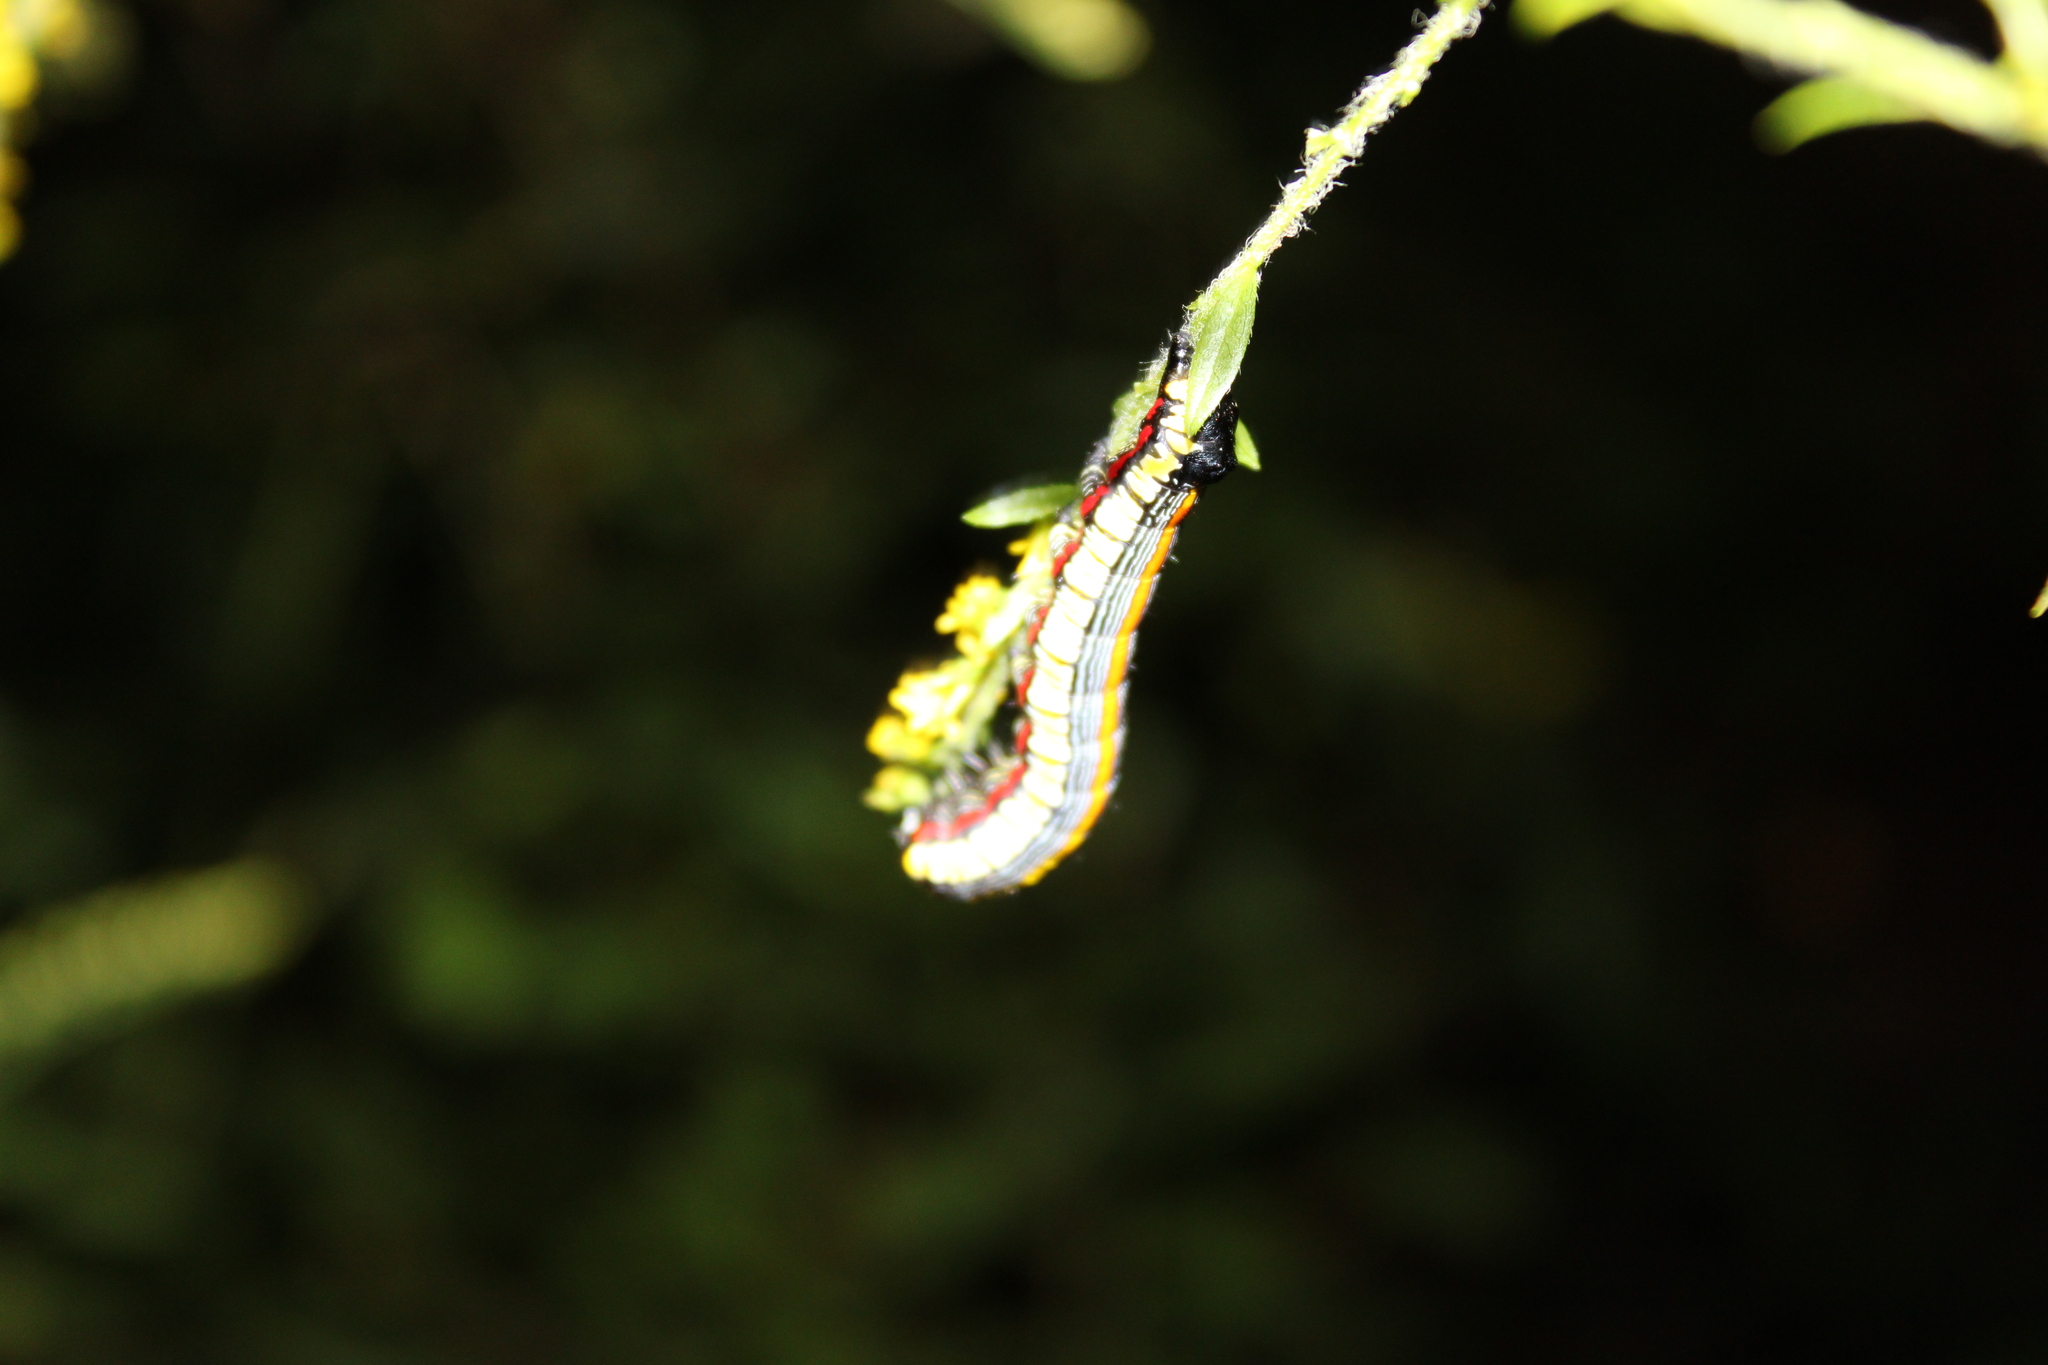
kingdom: Animalia
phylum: Arthropoda
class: Insecta
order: Lepidoptera
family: Noctuidae
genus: Cucullia
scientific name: Cucullia convexipennis
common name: Brown-hooded owlet
